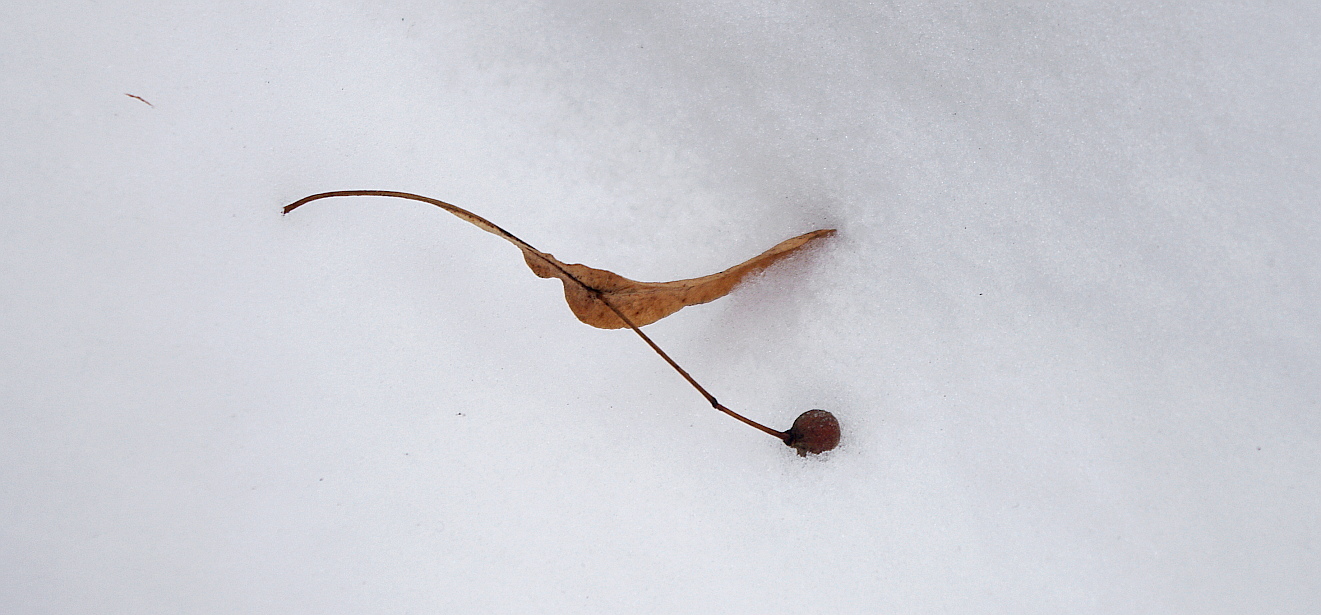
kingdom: Plantae
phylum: Tracheophyta
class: Magnoliopsida
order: Malvales
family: Malvaceae
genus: Tilia
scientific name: Tilia cordata
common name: Small-leaved lime
